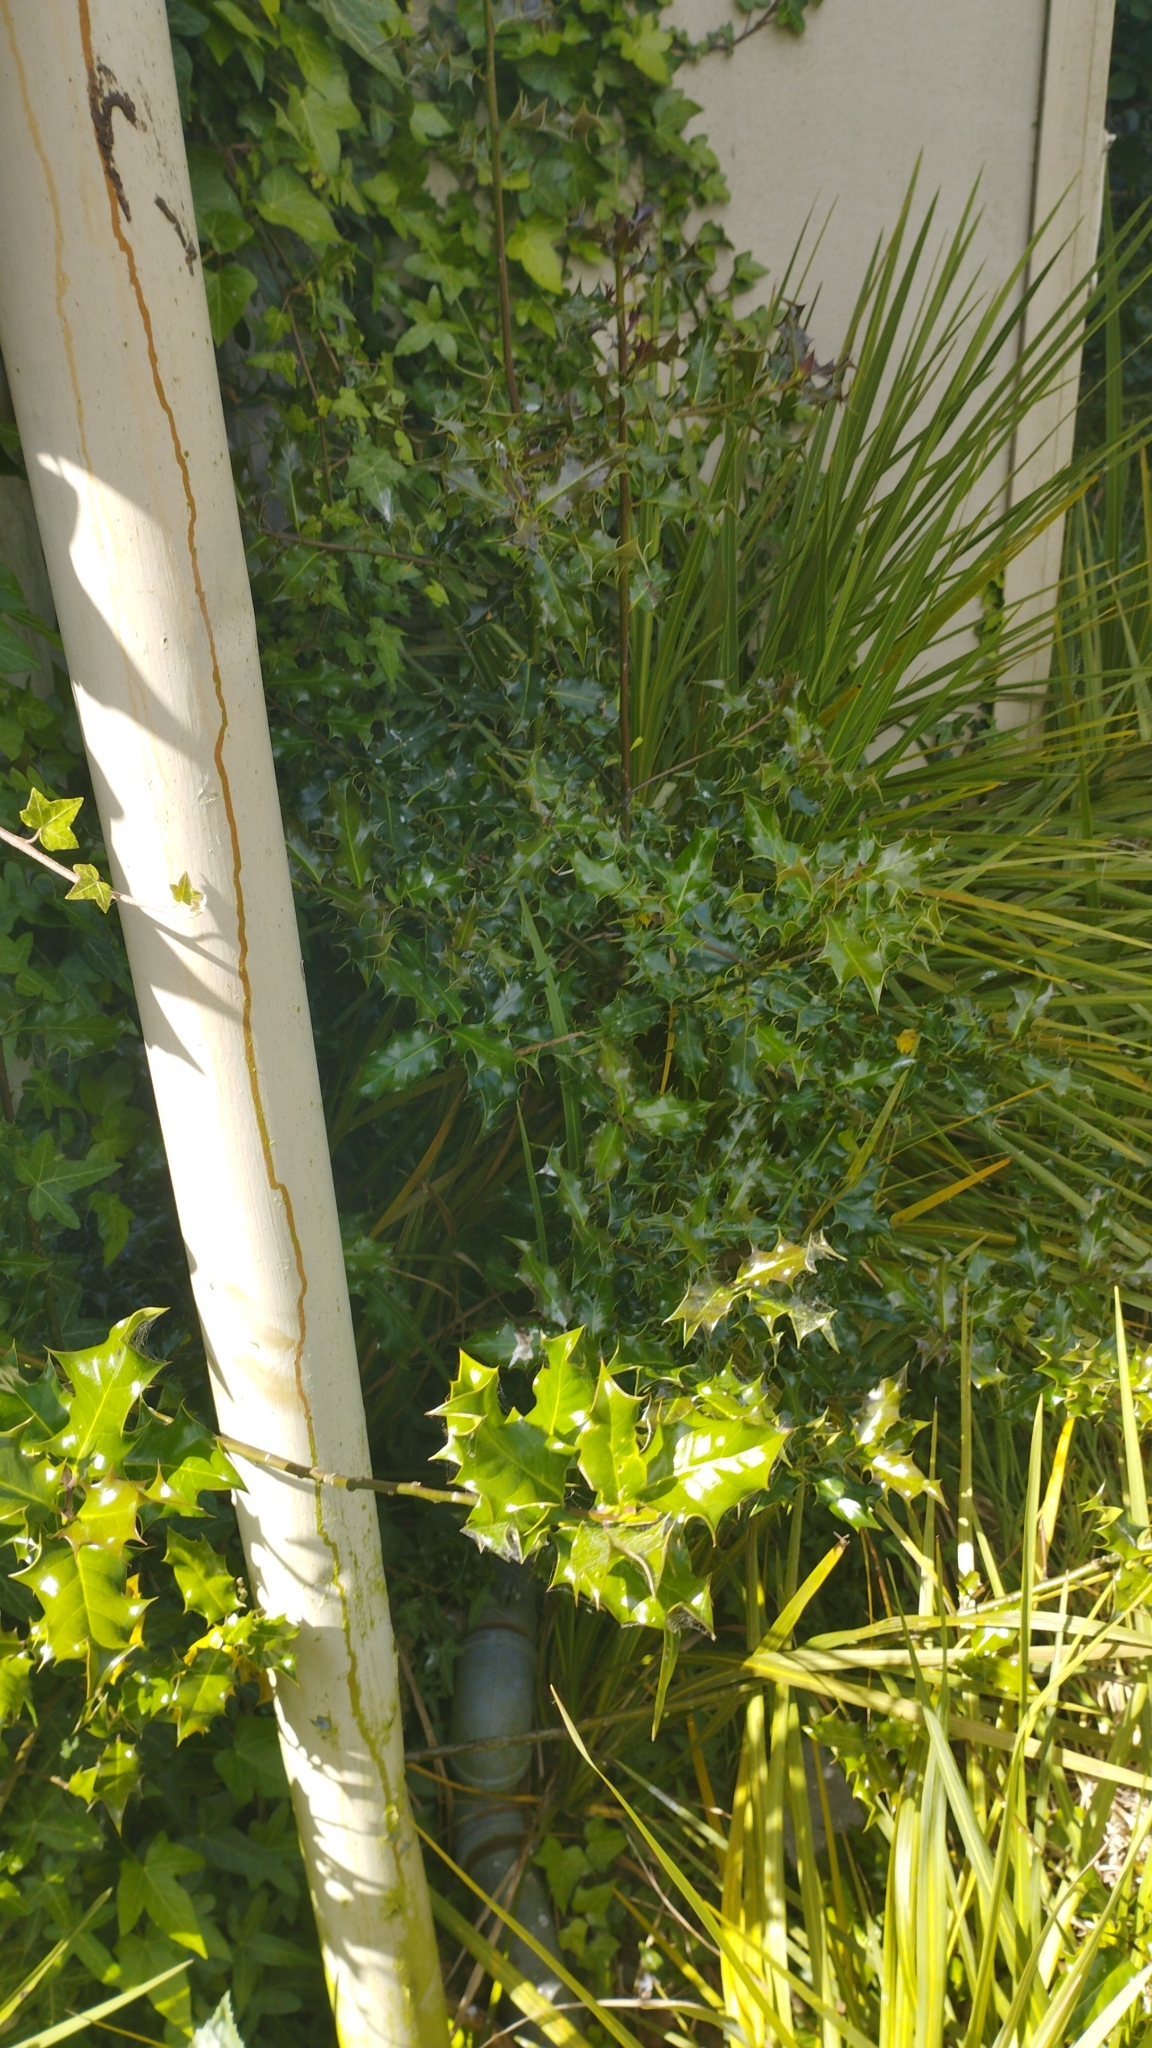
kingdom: Plantae
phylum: Tracheophyta
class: Magnoliopsida
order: Aquifoliales
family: Aquifoliaceae
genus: Ilex
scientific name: Ilex aquifolium
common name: English holly
